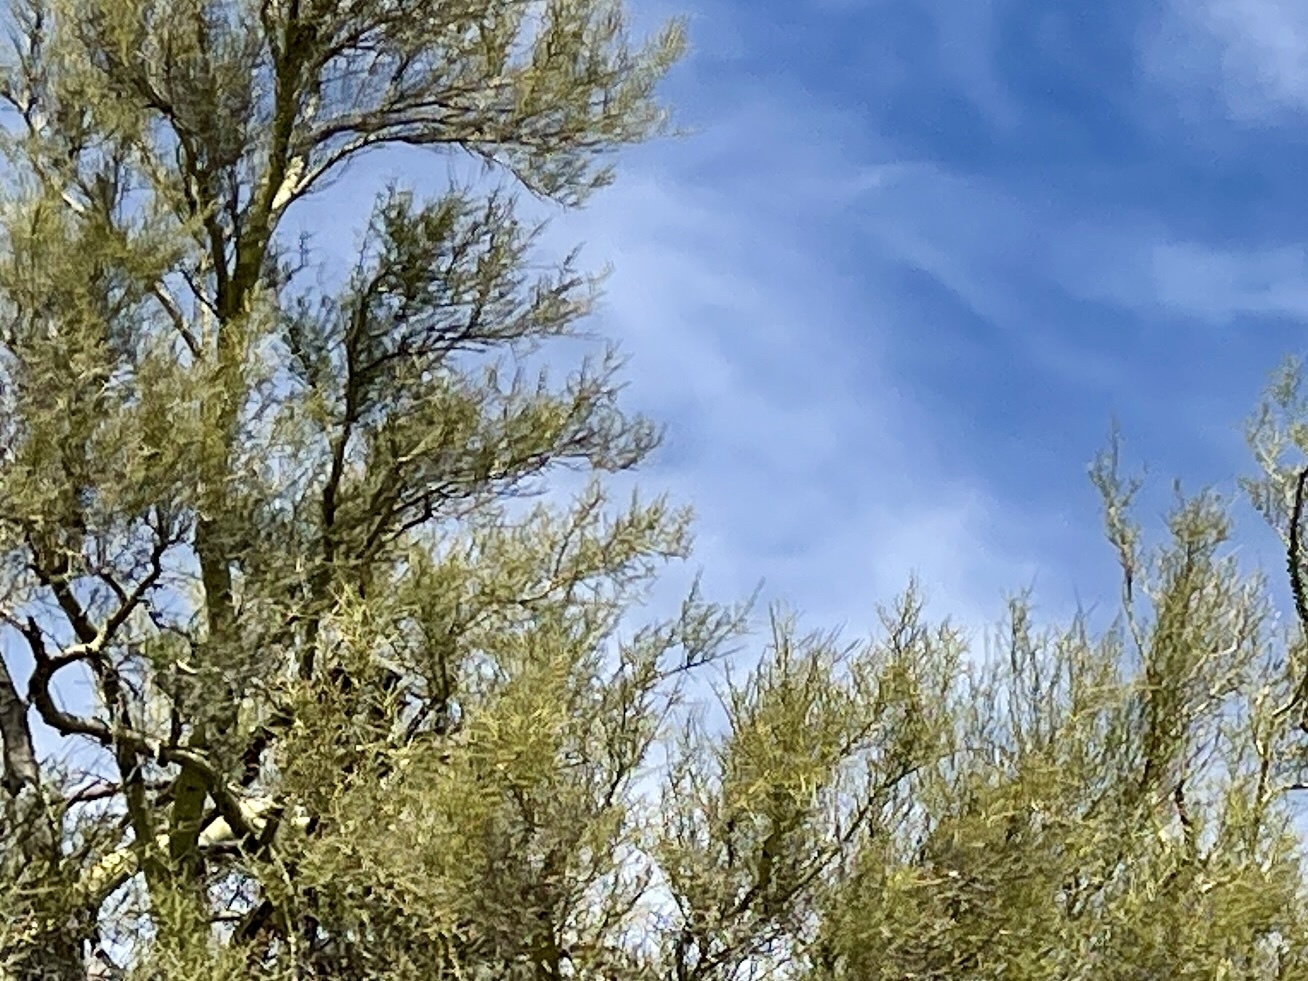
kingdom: Plantae
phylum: Tracheophyta
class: Magnoliopsida
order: Celastrales
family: Celastraceae
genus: Canotia
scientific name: Canotia holacantha
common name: Crucifixion thorns
